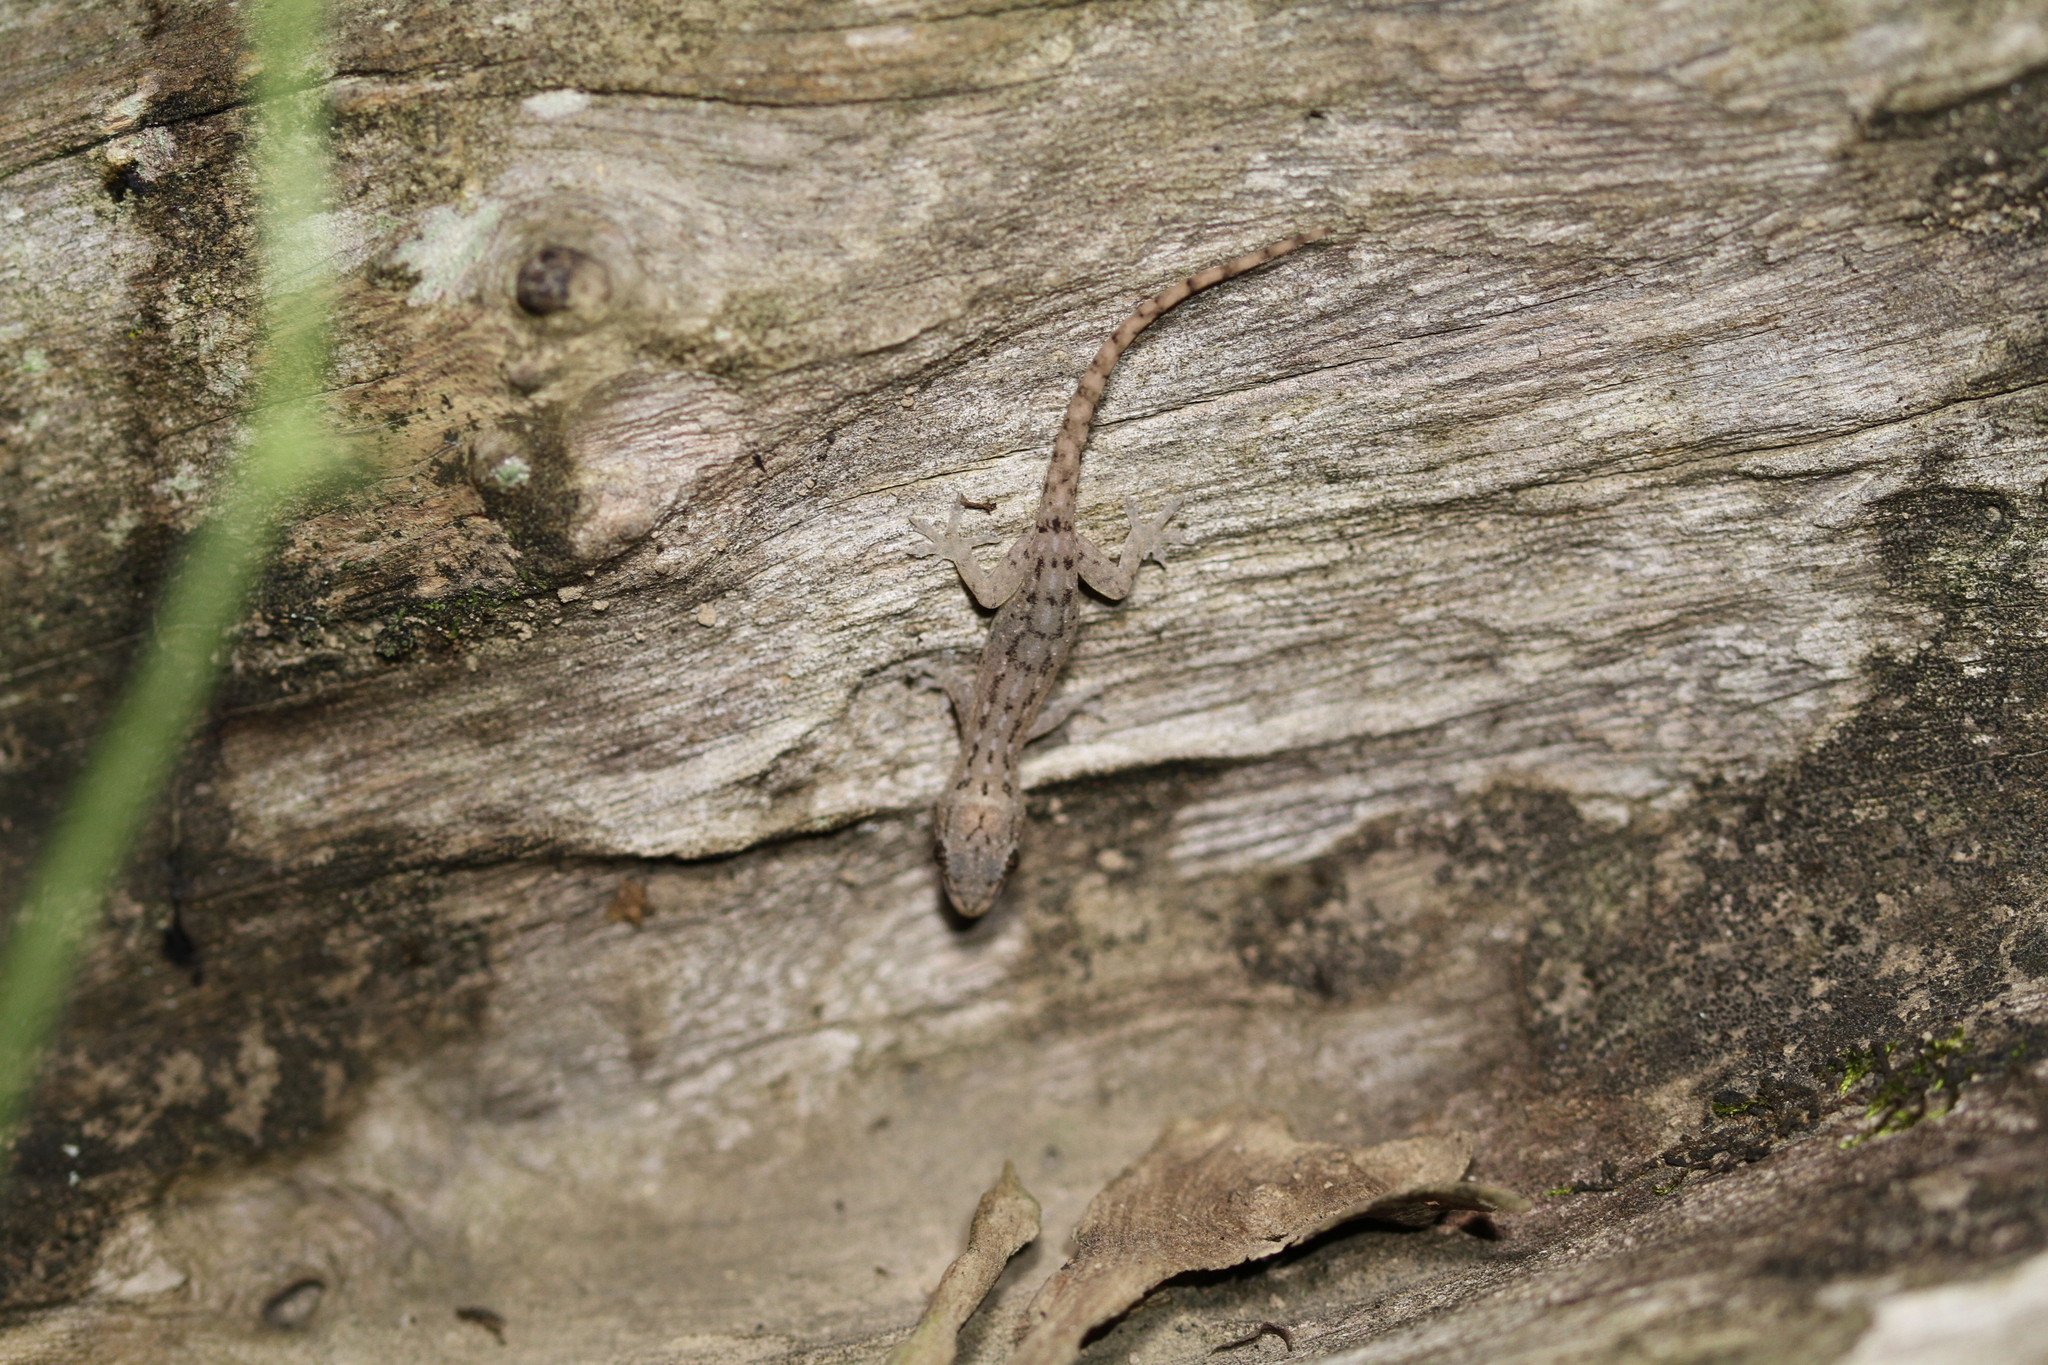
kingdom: Animalia
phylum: Chordata
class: Squamata
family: Gekkonidae
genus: Hemidactylus
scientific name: Hemidactylus frenatus
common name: Common house gecko
